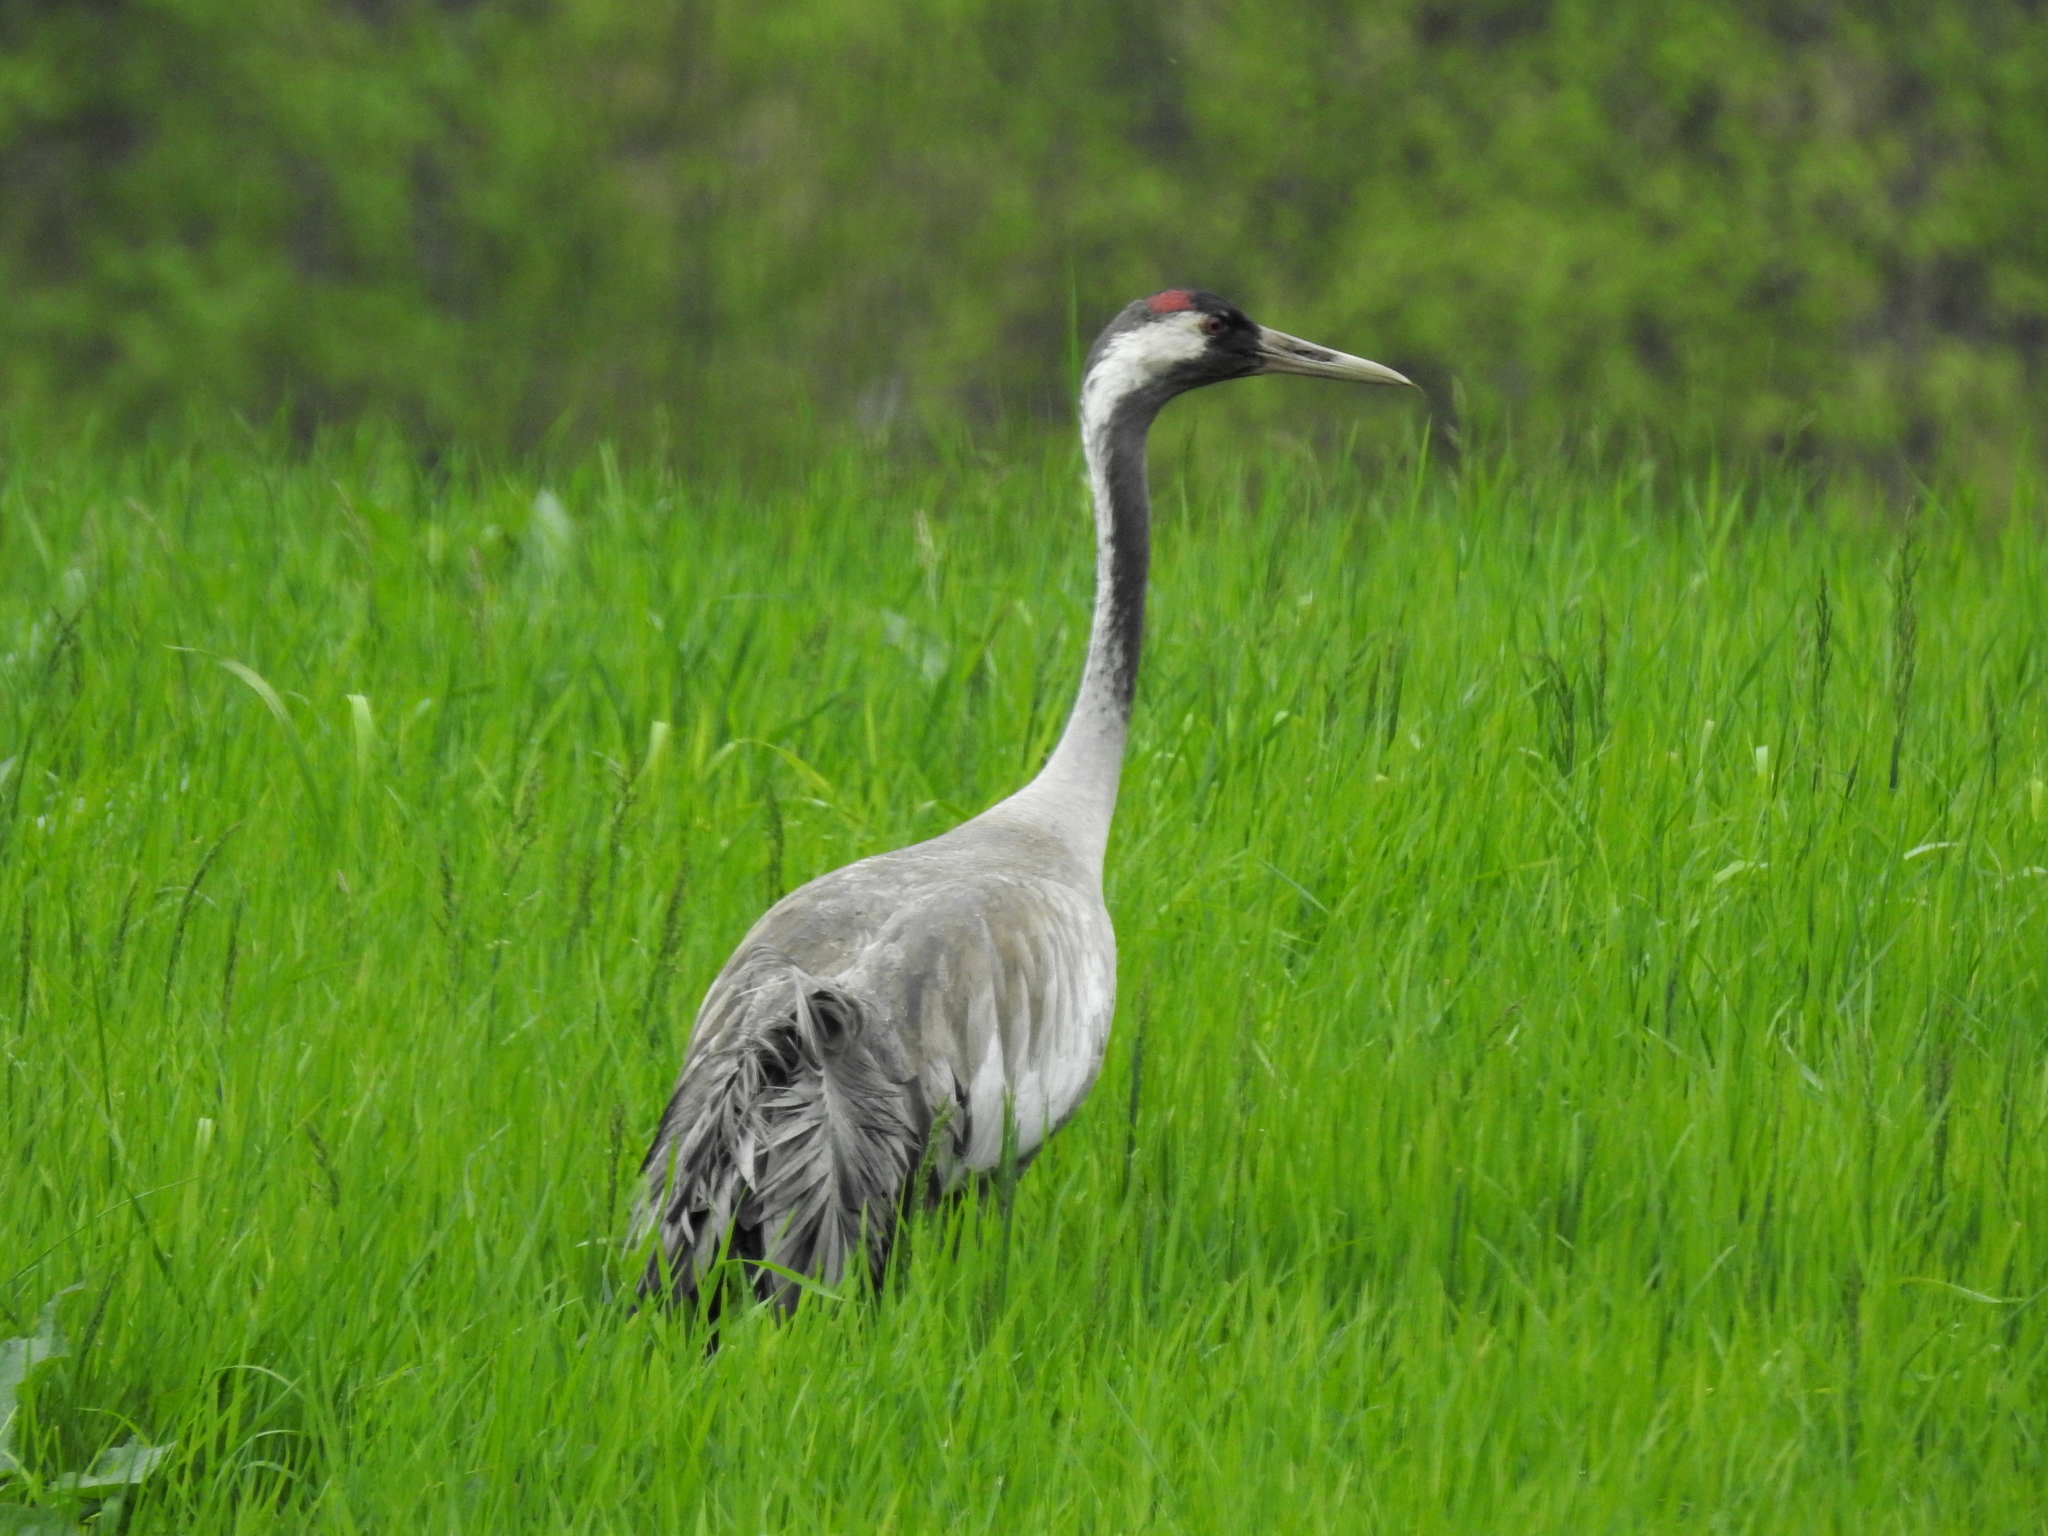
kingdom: Animalia
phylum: Chordata
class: Aves
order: Gruiformes
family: Gruidae
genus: Grus
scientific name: Grus grus
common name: Common crane
